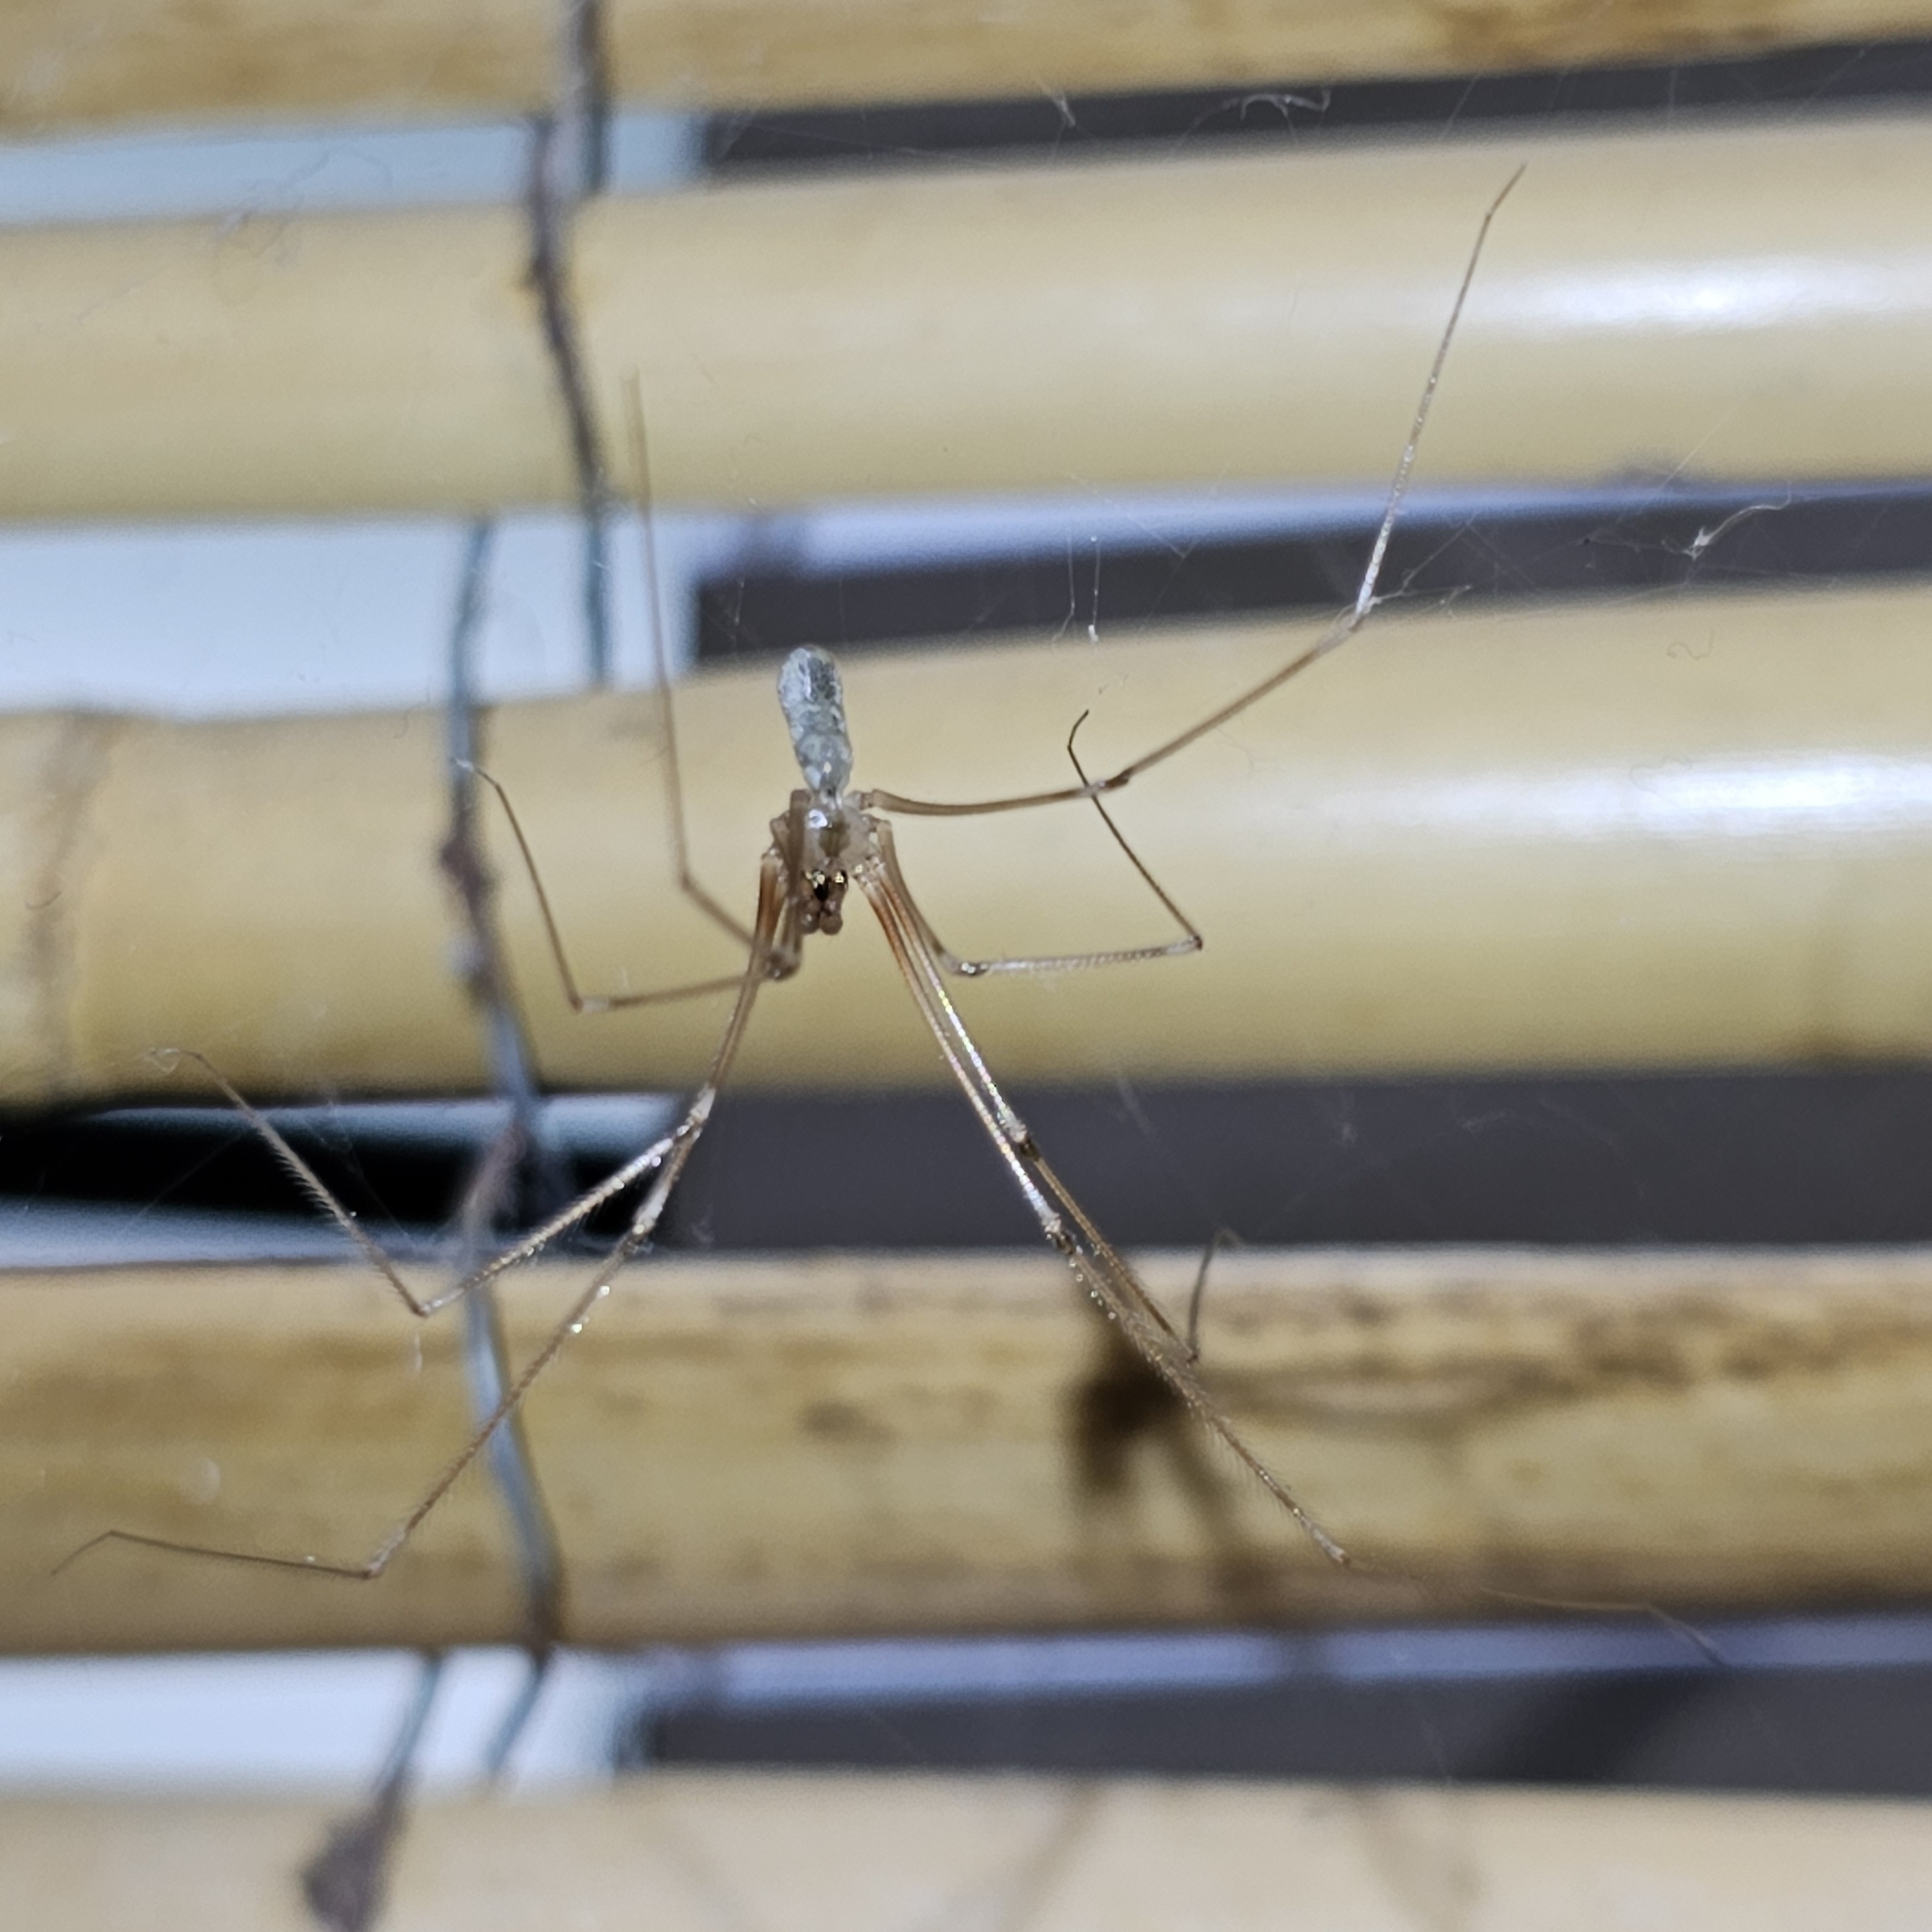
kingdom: Animalia
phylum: Arthropoda
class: Arachnida
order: Araneae
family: Pholcidae
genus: Pholcus
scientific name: Pholcus phalangioides
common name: Longbodied cellar spider
